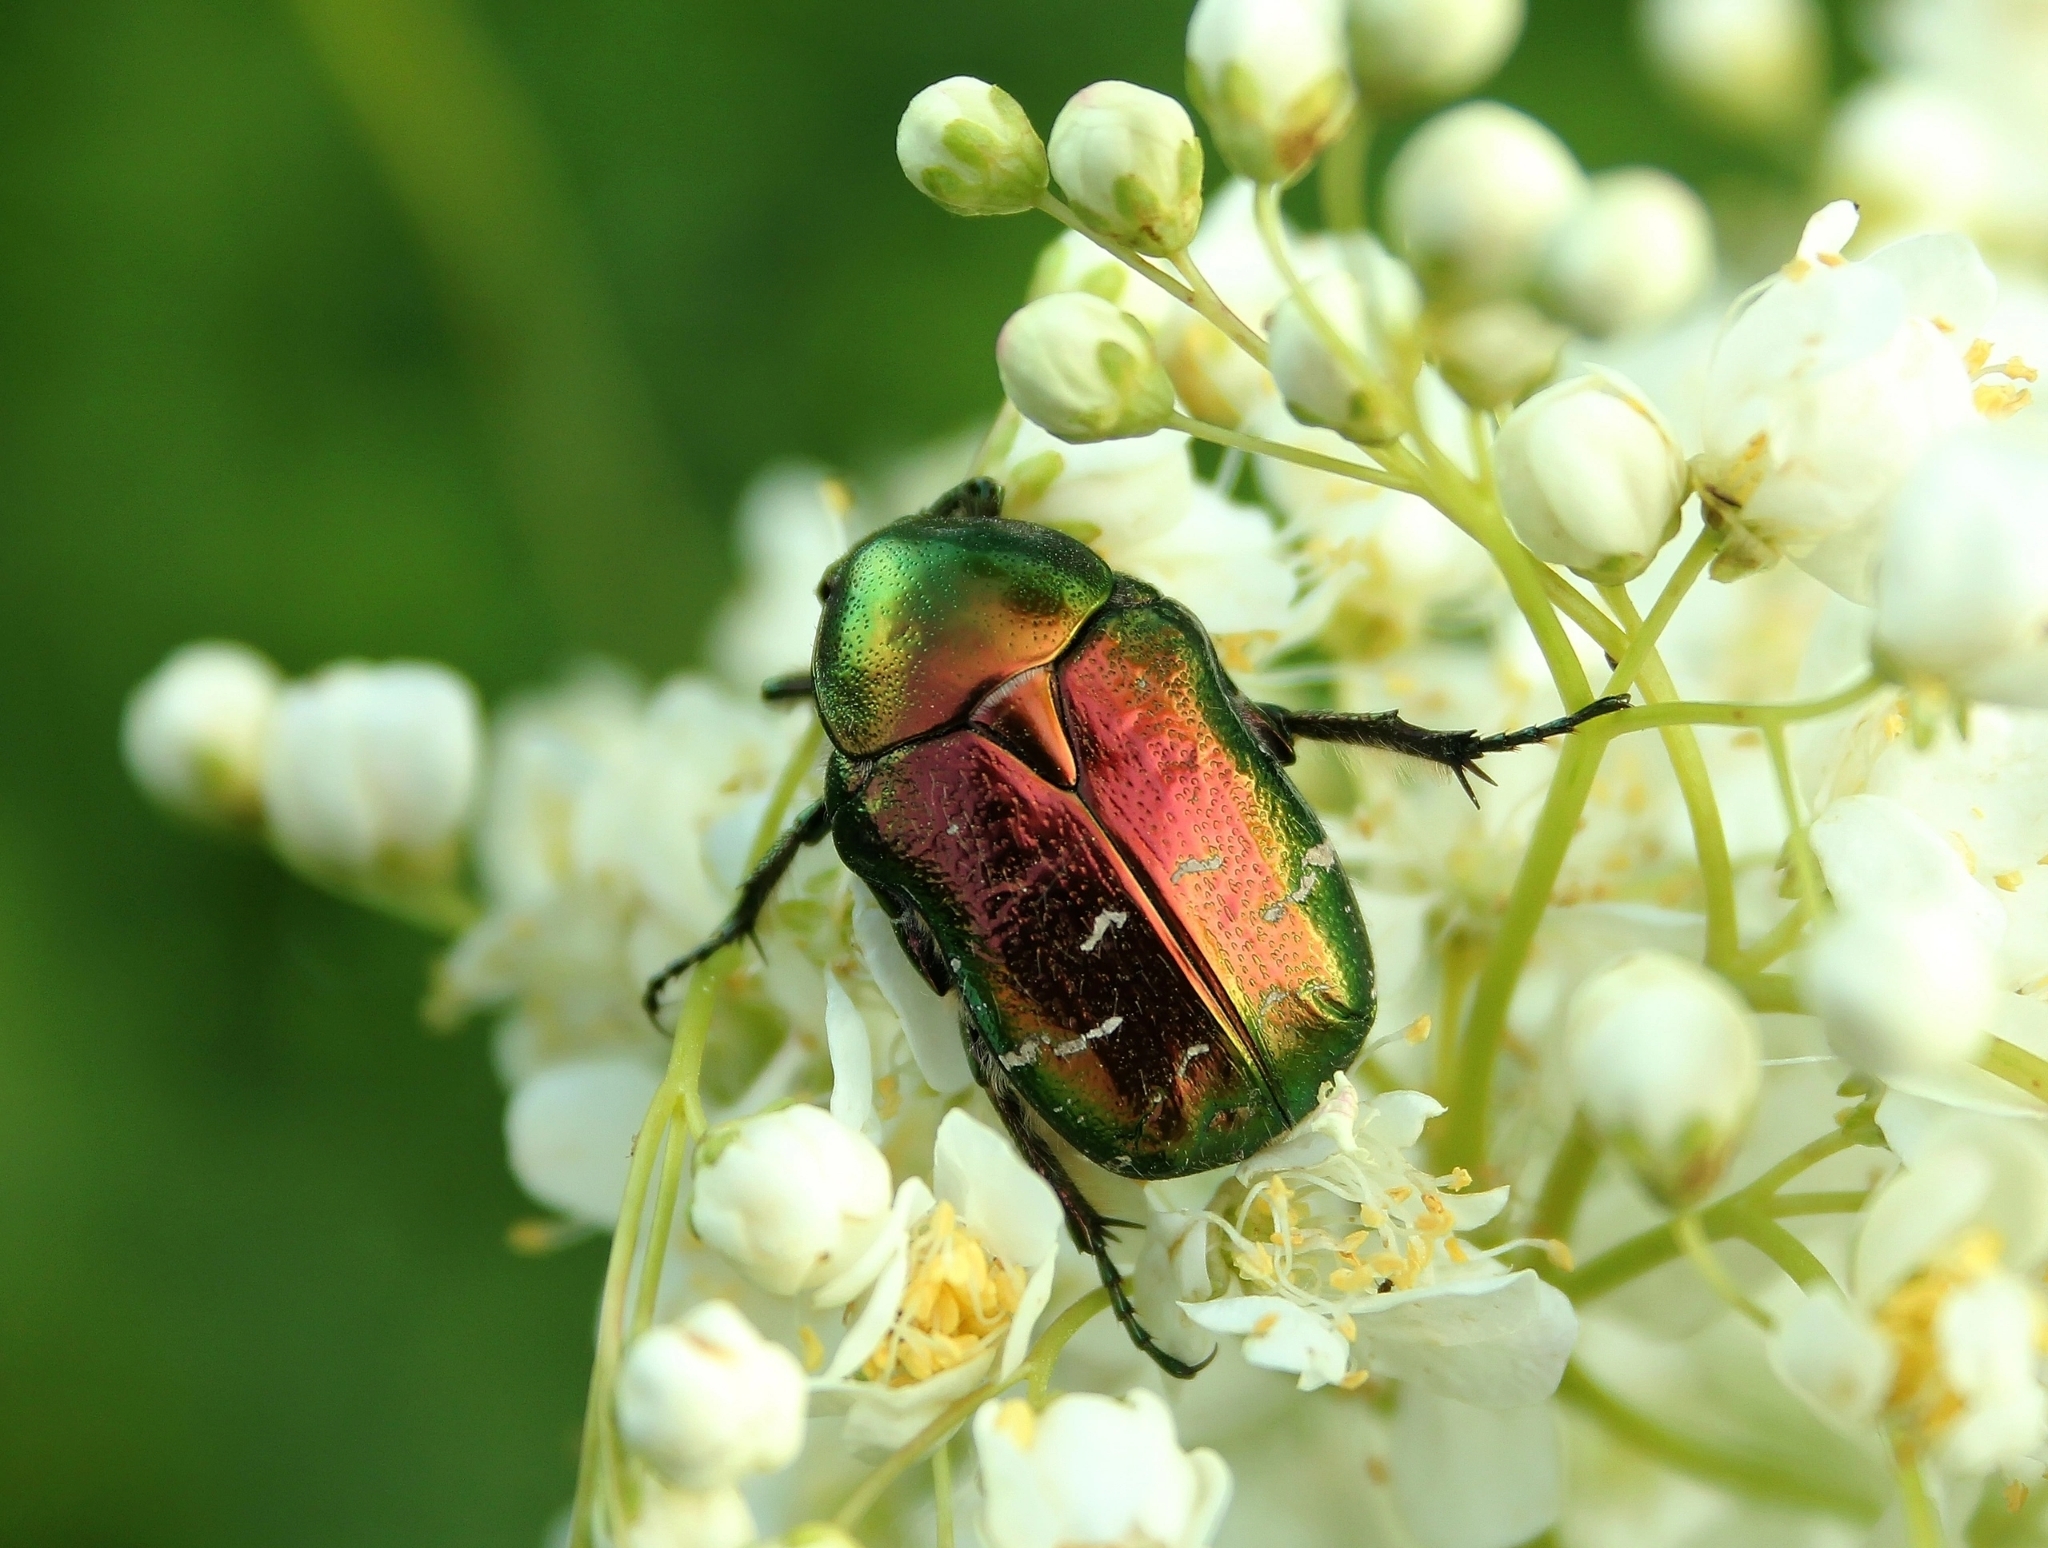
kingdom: Animalia
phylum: Arthropoda
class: Insecta
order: Coleoptera
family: Scarabaeidae
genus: Cetonia
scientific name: Cetonia aurata
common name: Rose chafer
